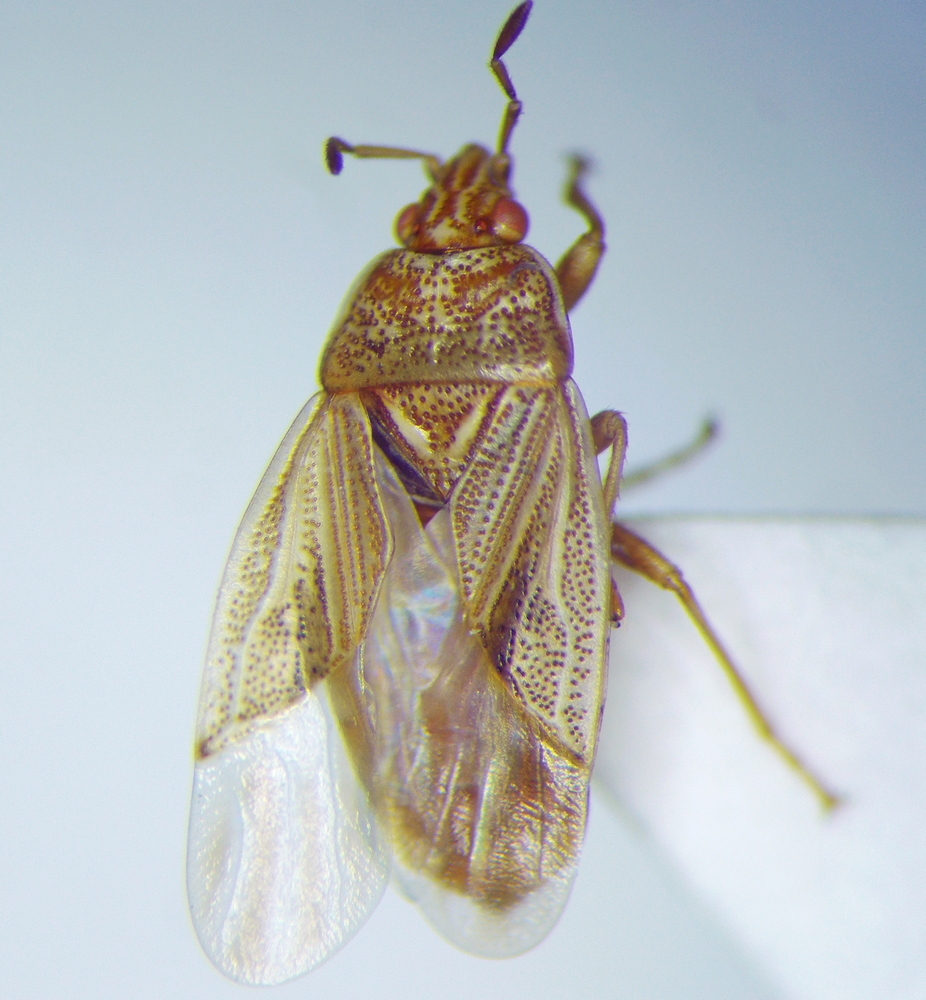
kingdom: Animalia
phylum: Arthropoda
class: Insecta
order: Hemiptera
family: Artheneidae
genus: Chilacis
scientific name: Chilacis typhae
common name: Cattail bug
